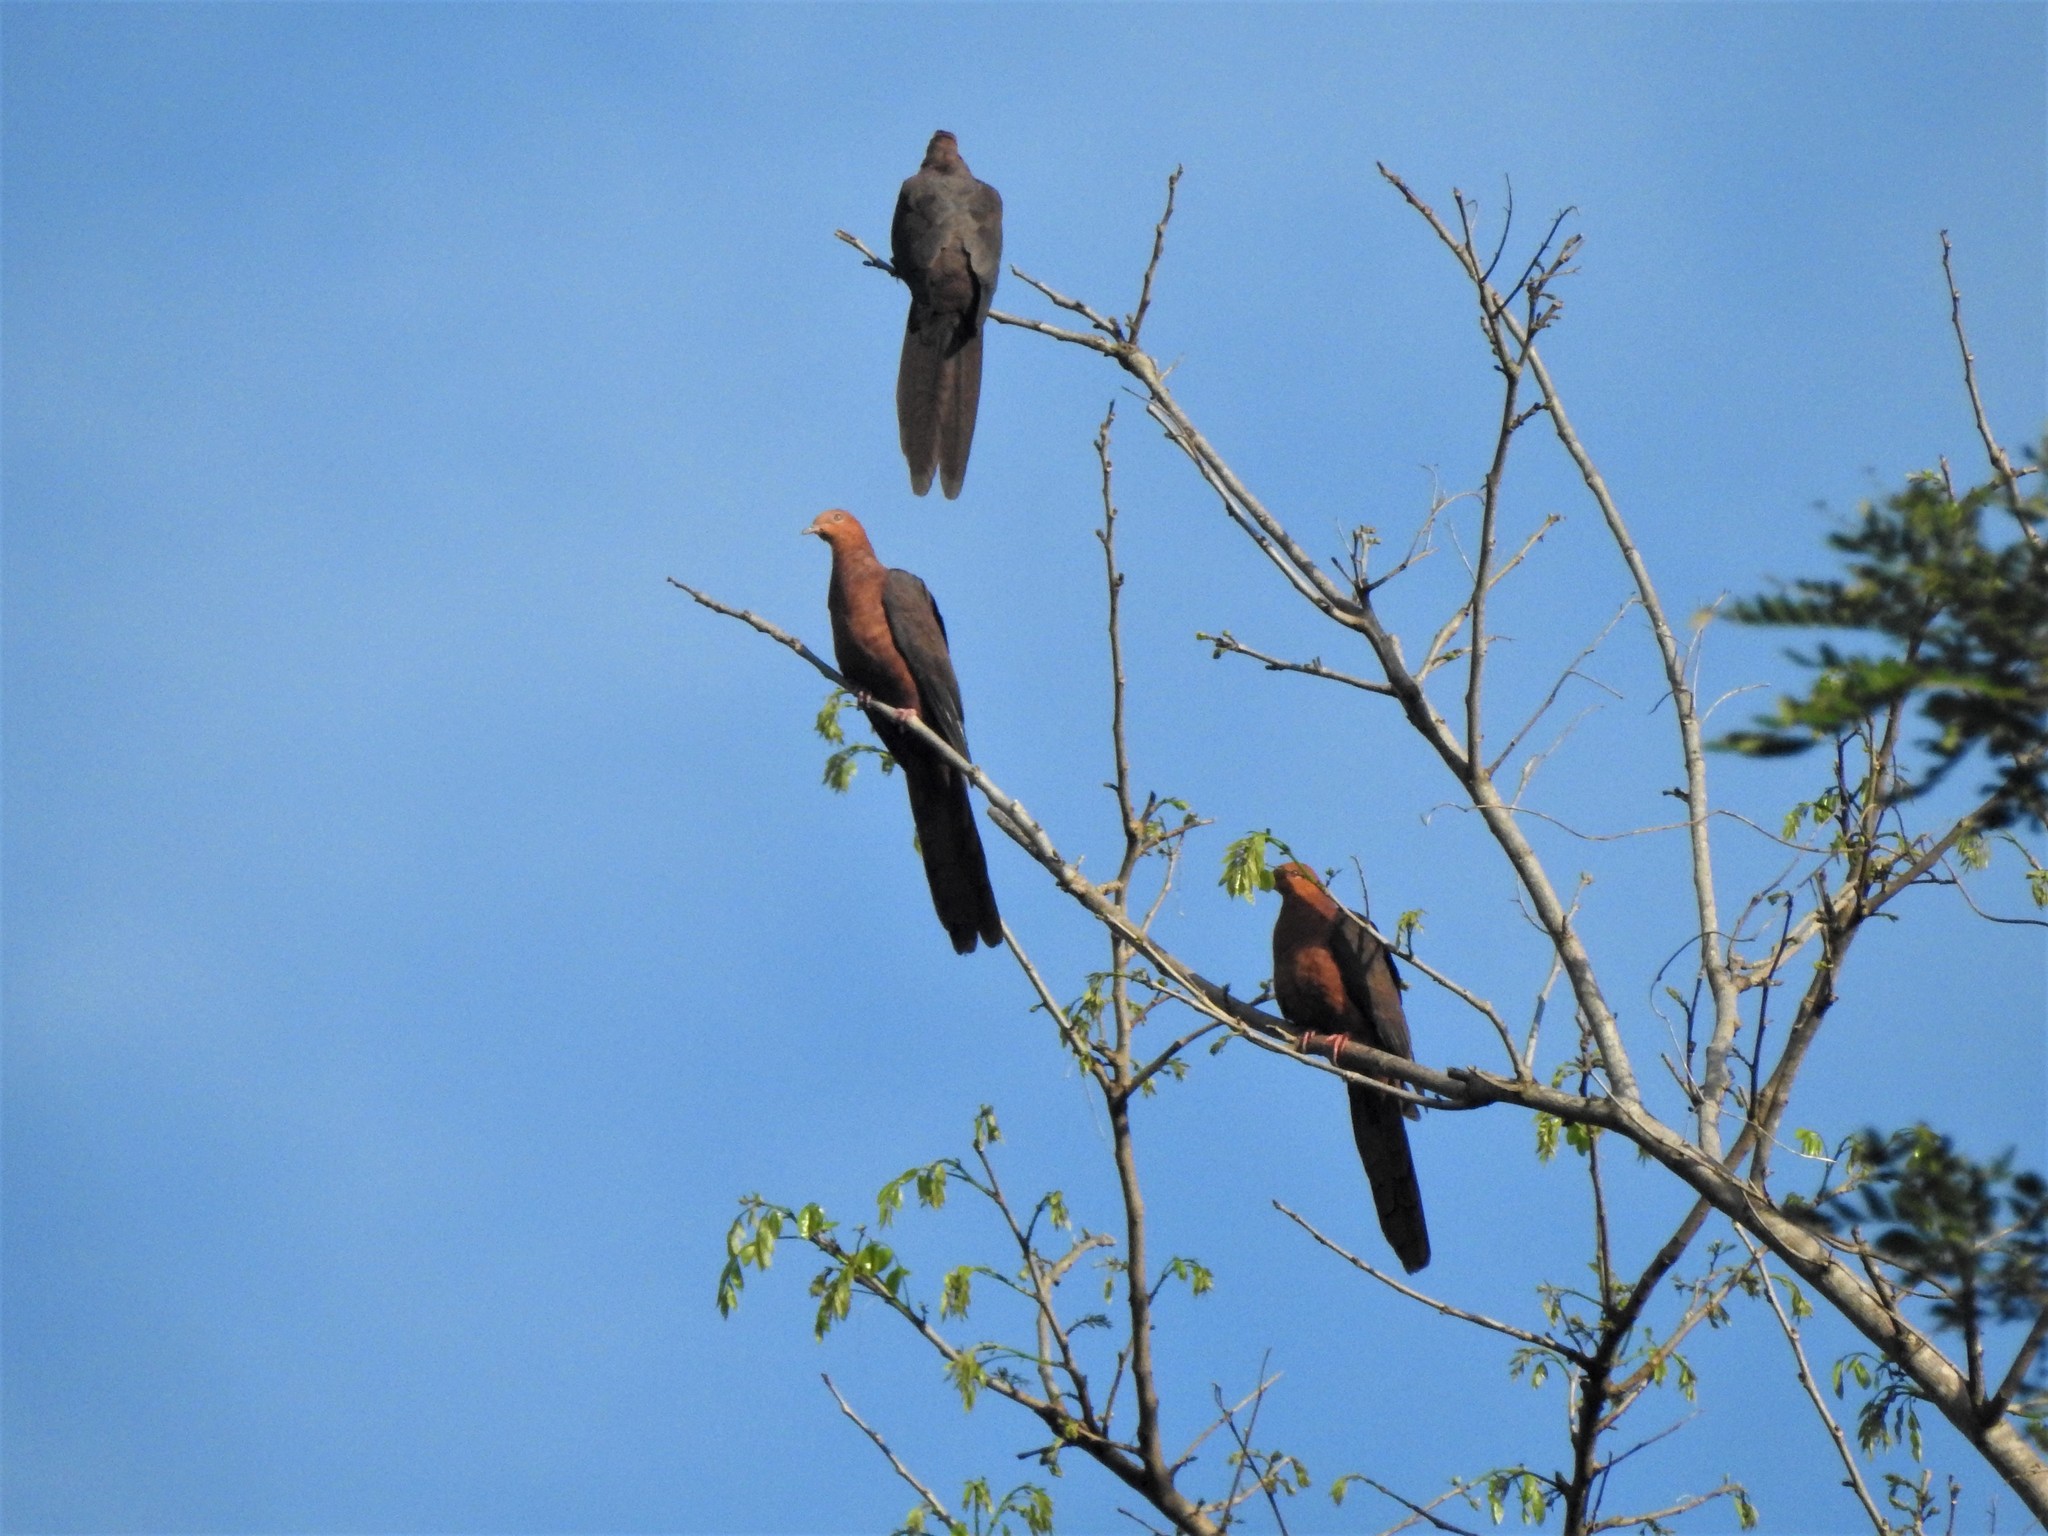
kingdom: Animalia
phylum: Chordata
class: Aves
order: Columbiformes
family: Columbidae
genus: Macropygia
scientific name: Macropygia tenuirostris
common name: Philippine cuckoo-dove
